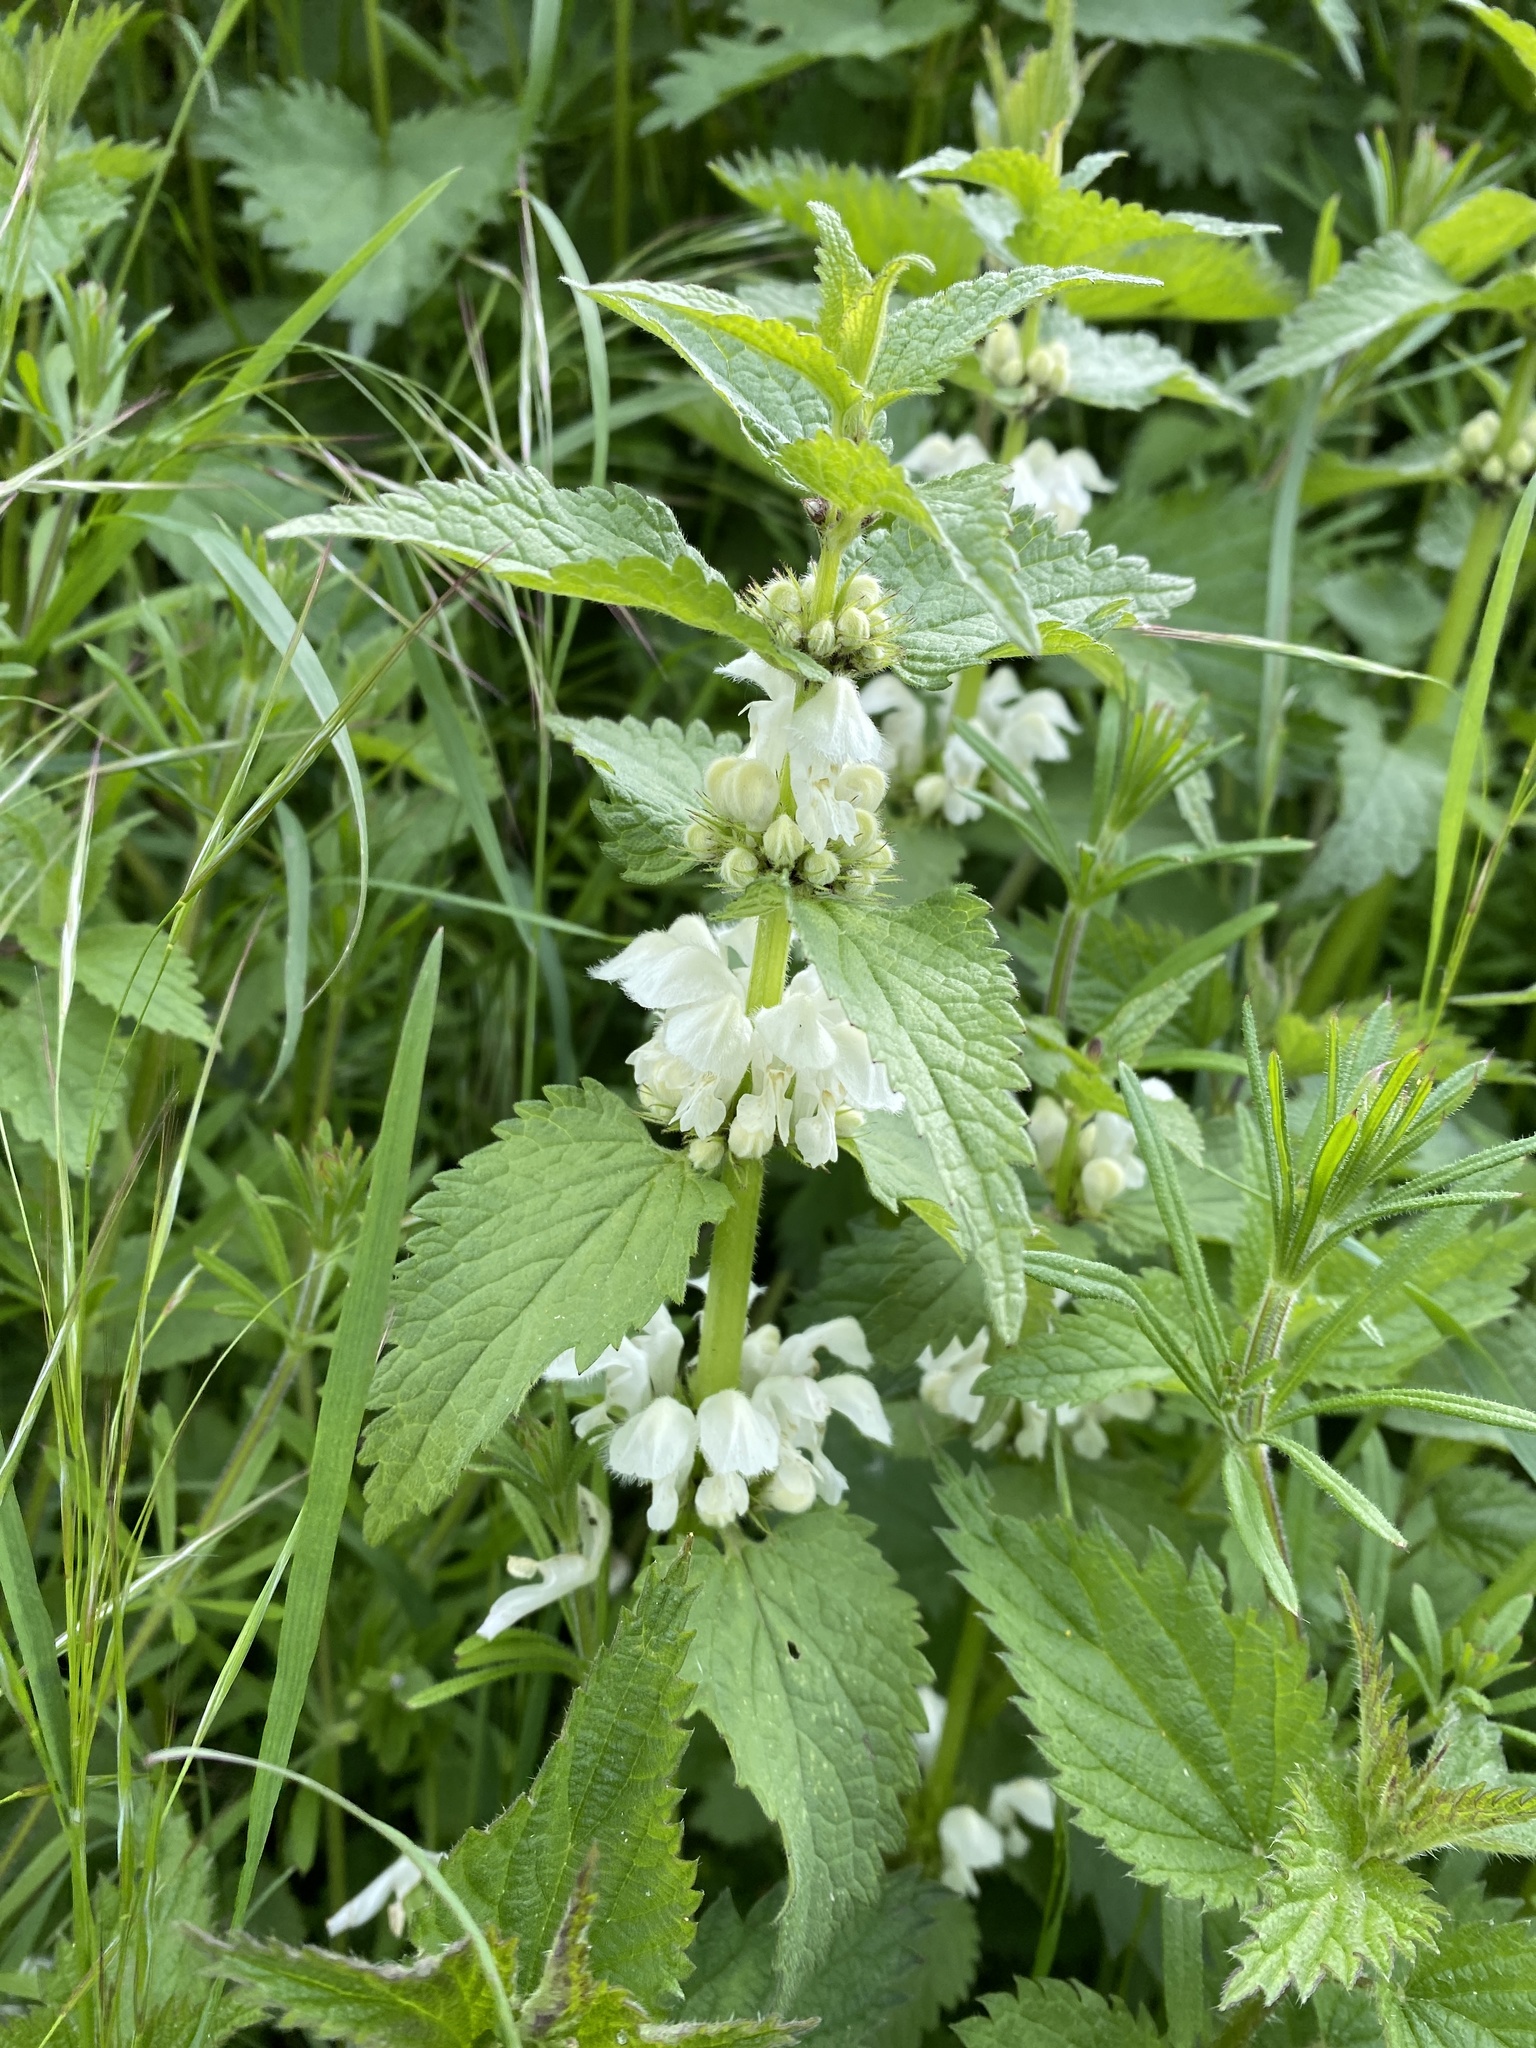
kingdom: Plantae
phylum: Tracheophyta
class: Magnoliopsida
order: Lamiales
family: Lamiaceae
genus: Lamium
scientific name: Lamium album
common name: White dead-nettle
